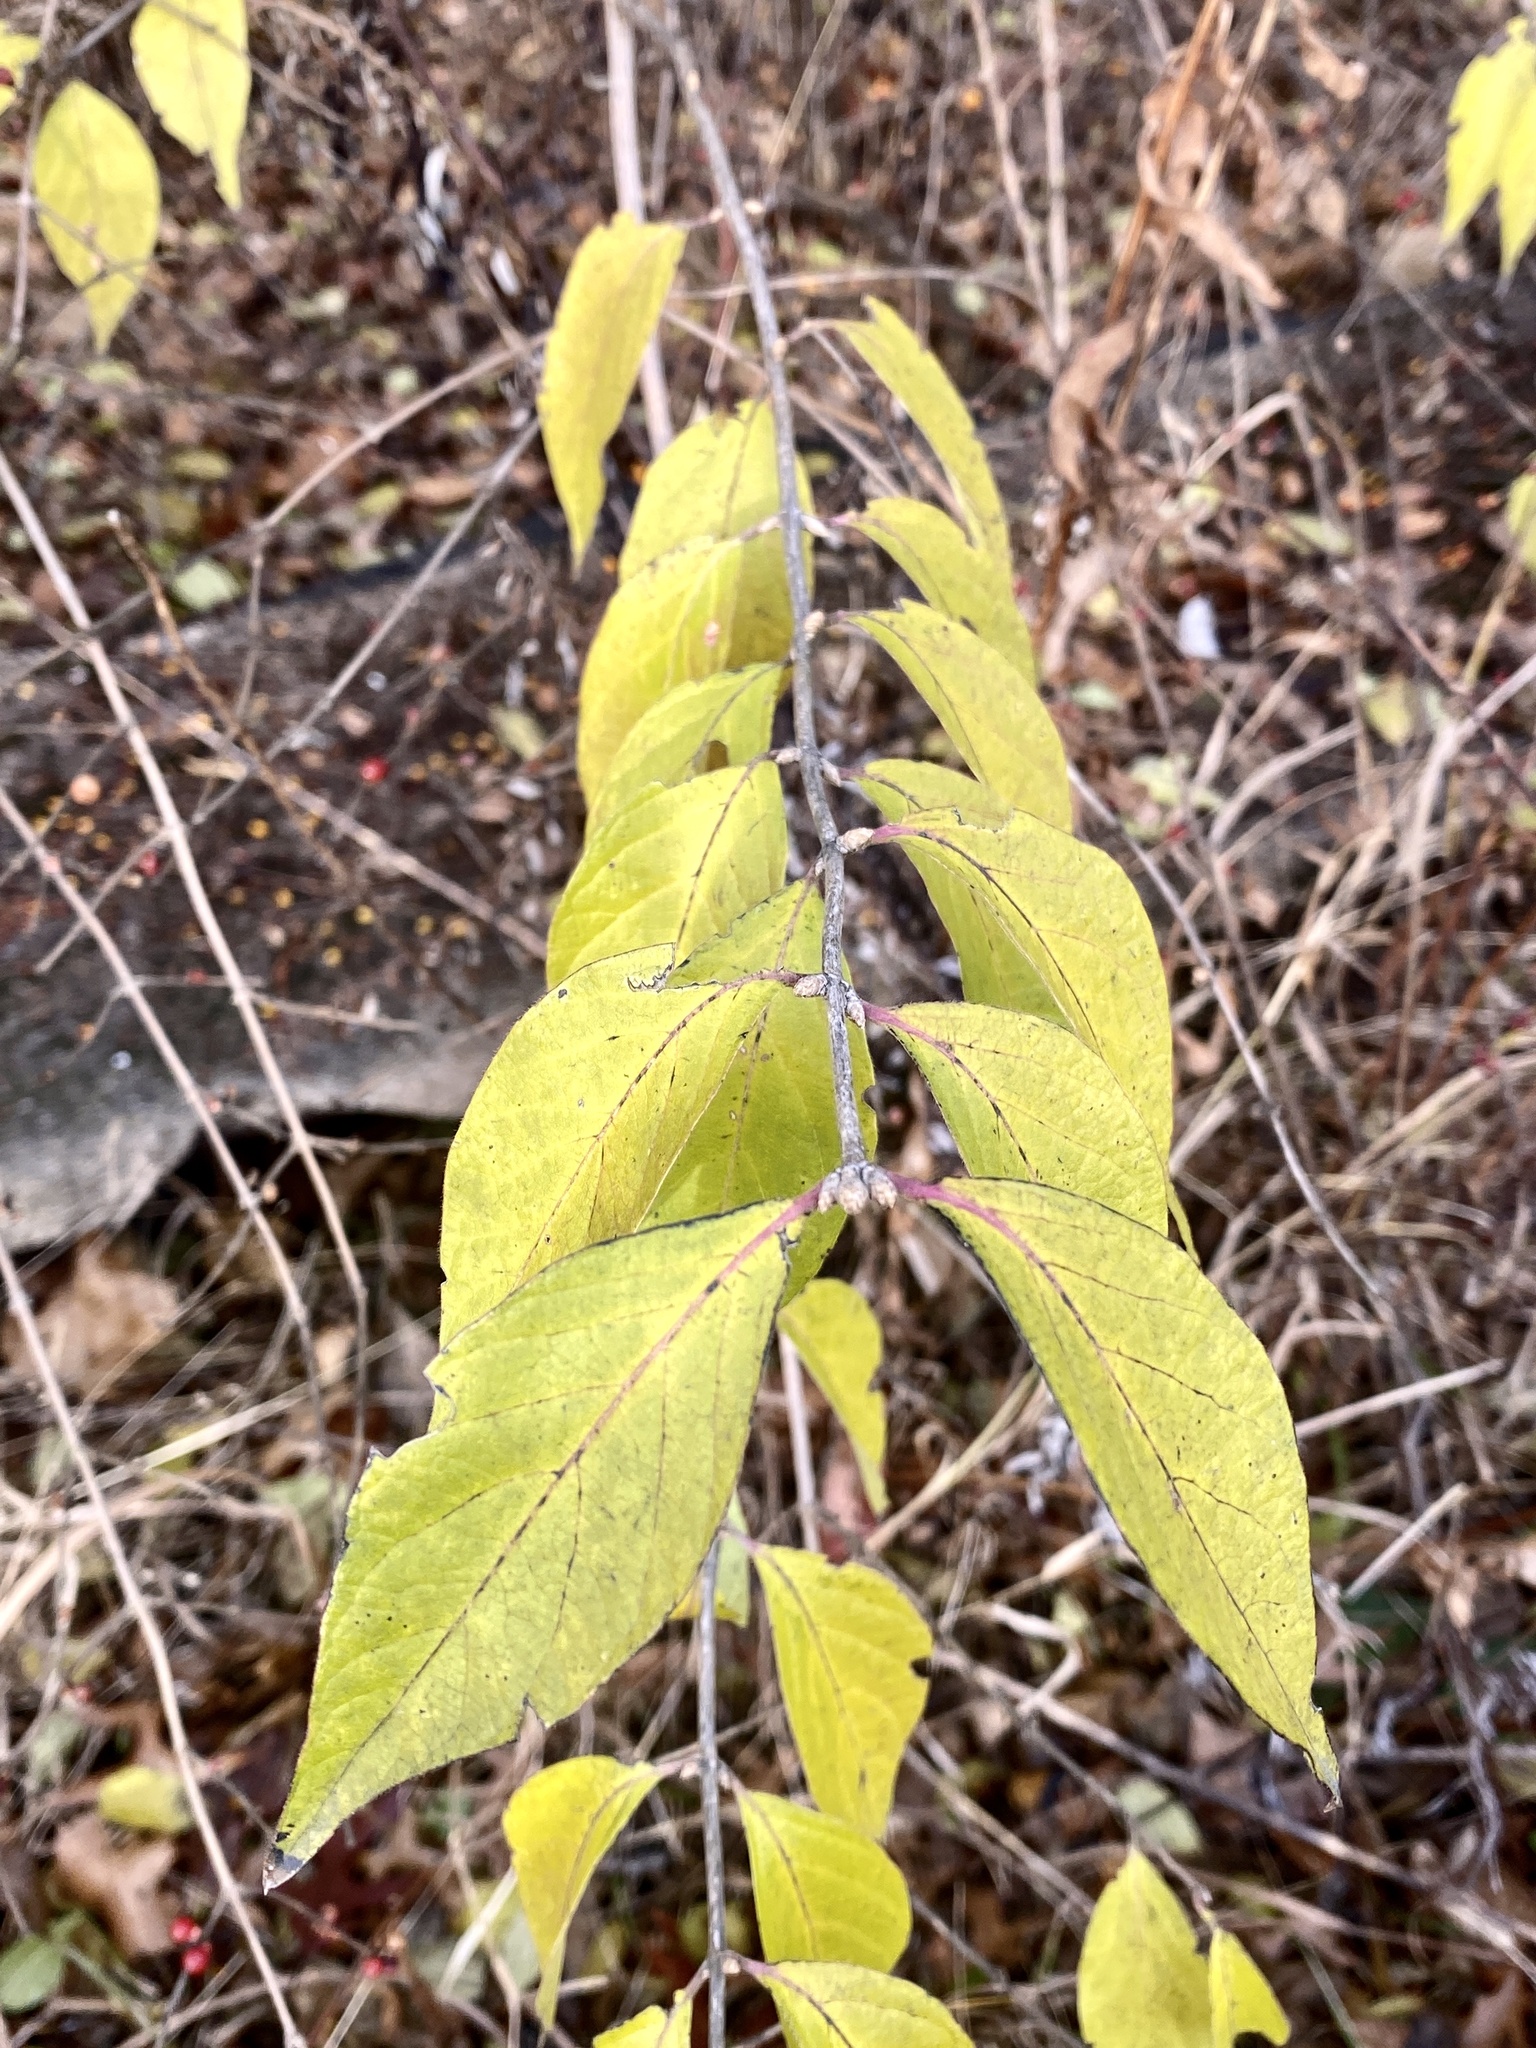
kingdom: Plantae
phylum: Tracheophyta
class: Magnoliopsida
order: Dipsacales
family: Caprifoliaceae
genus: Lonicera
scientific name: Lonicera maackii
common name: Amur honeysuckle
